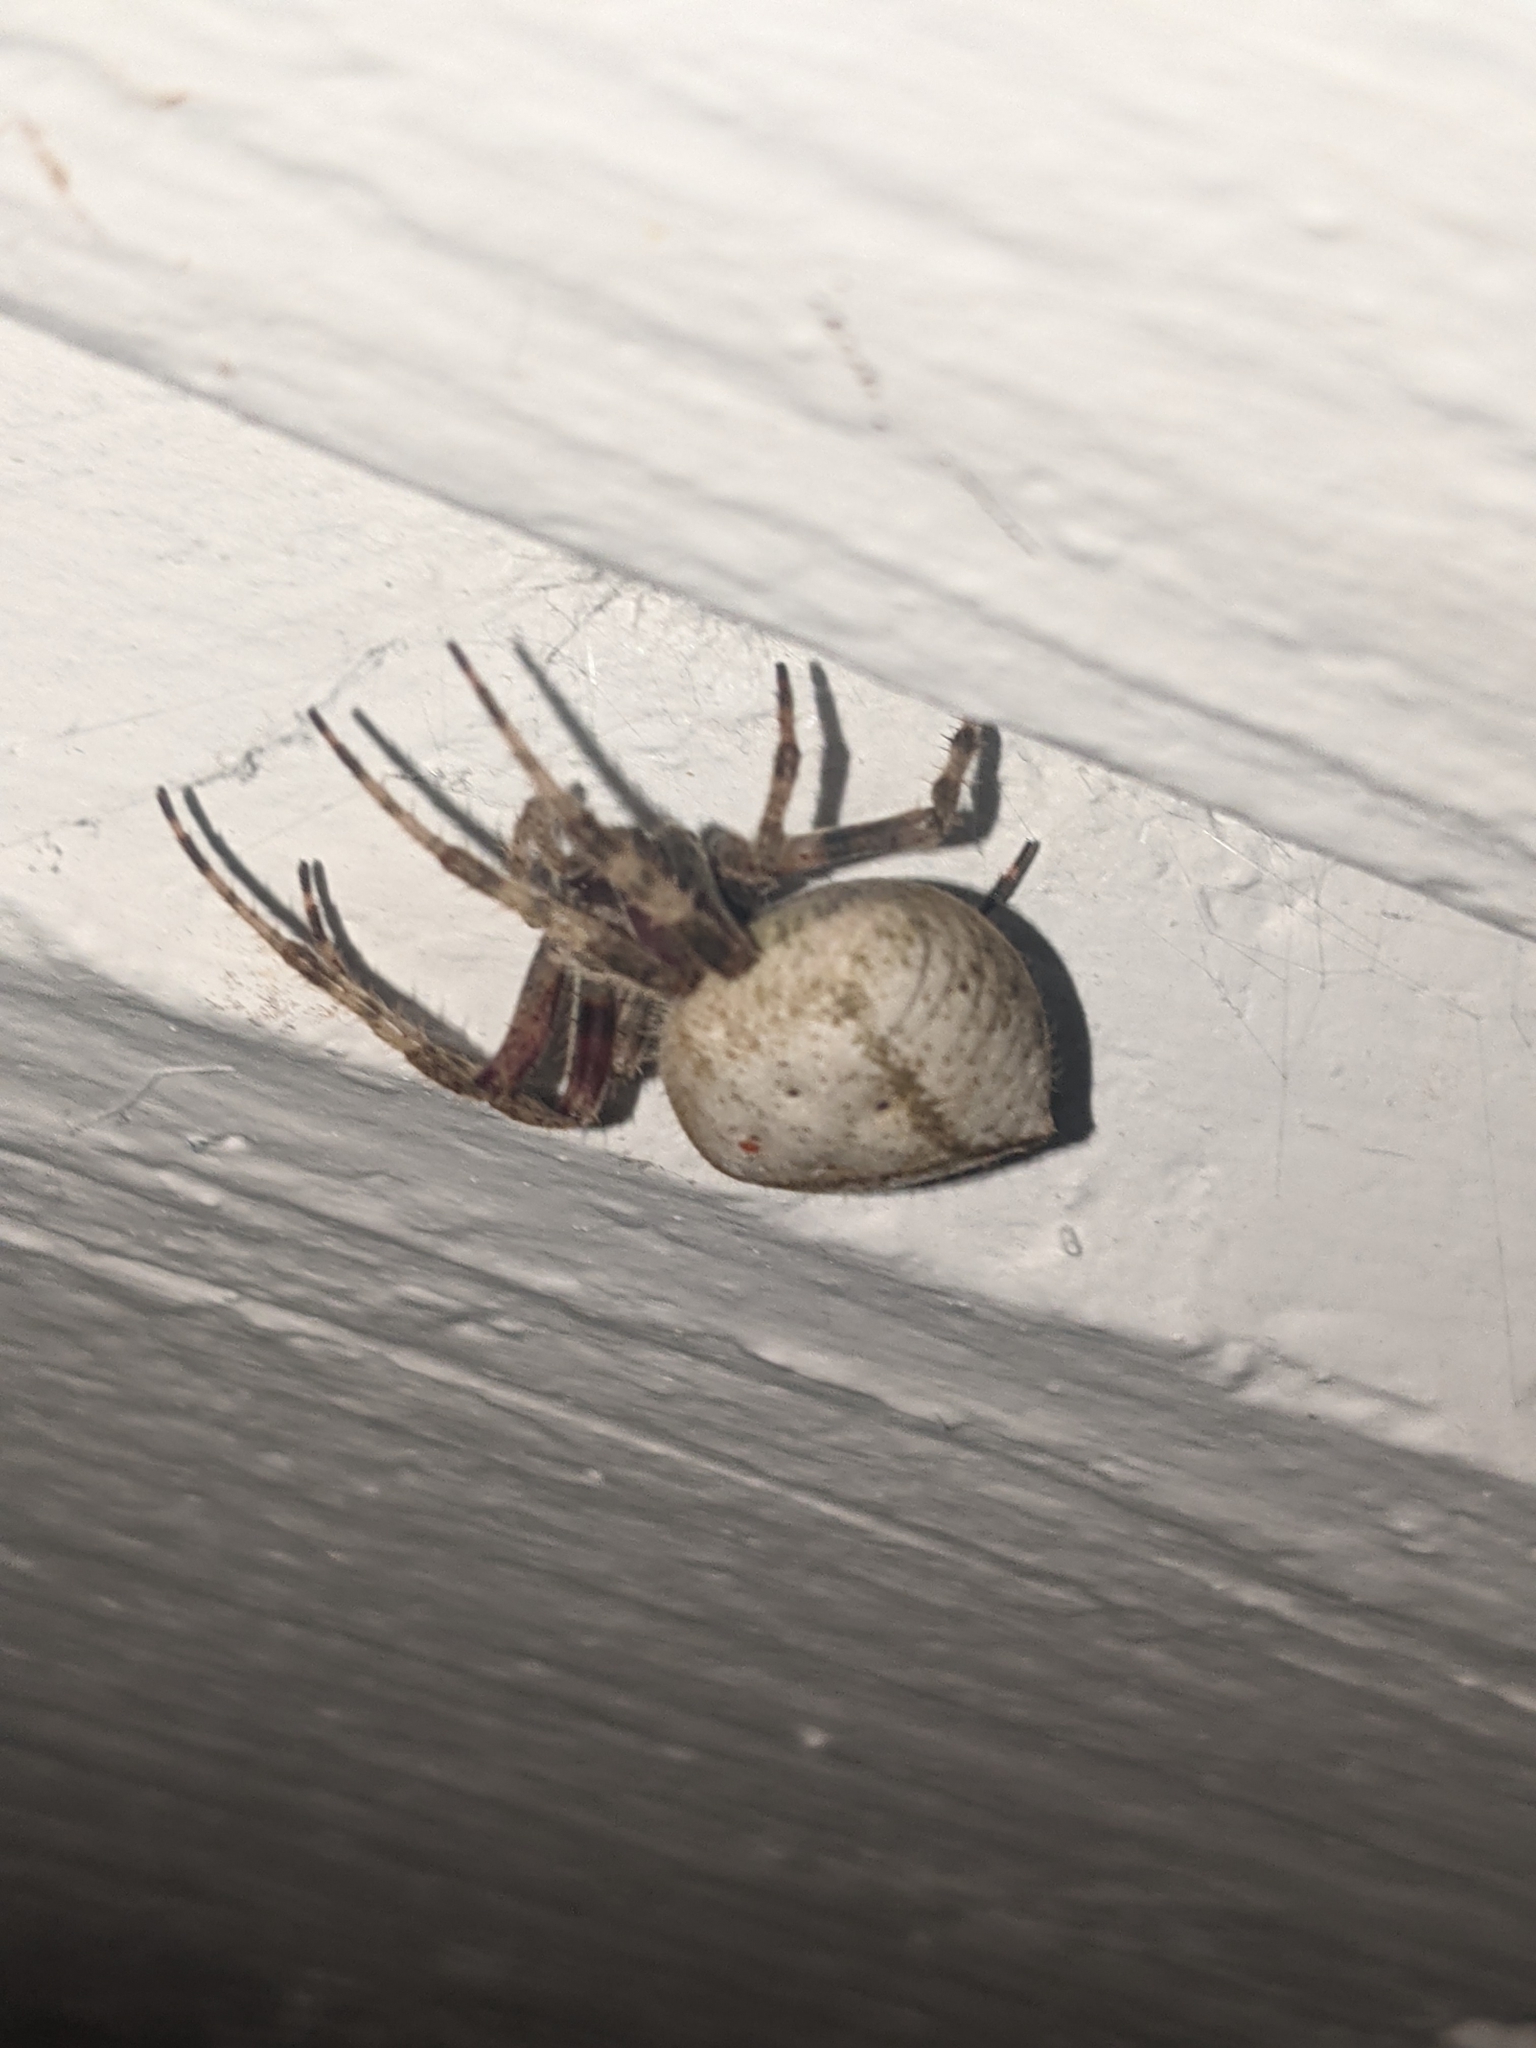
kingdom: Animalia
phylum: Arthropoda
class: Arachnida
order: Araneae
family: Araneidae
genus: Eriophora
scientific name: Eriophora edax
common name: Orb weavers
